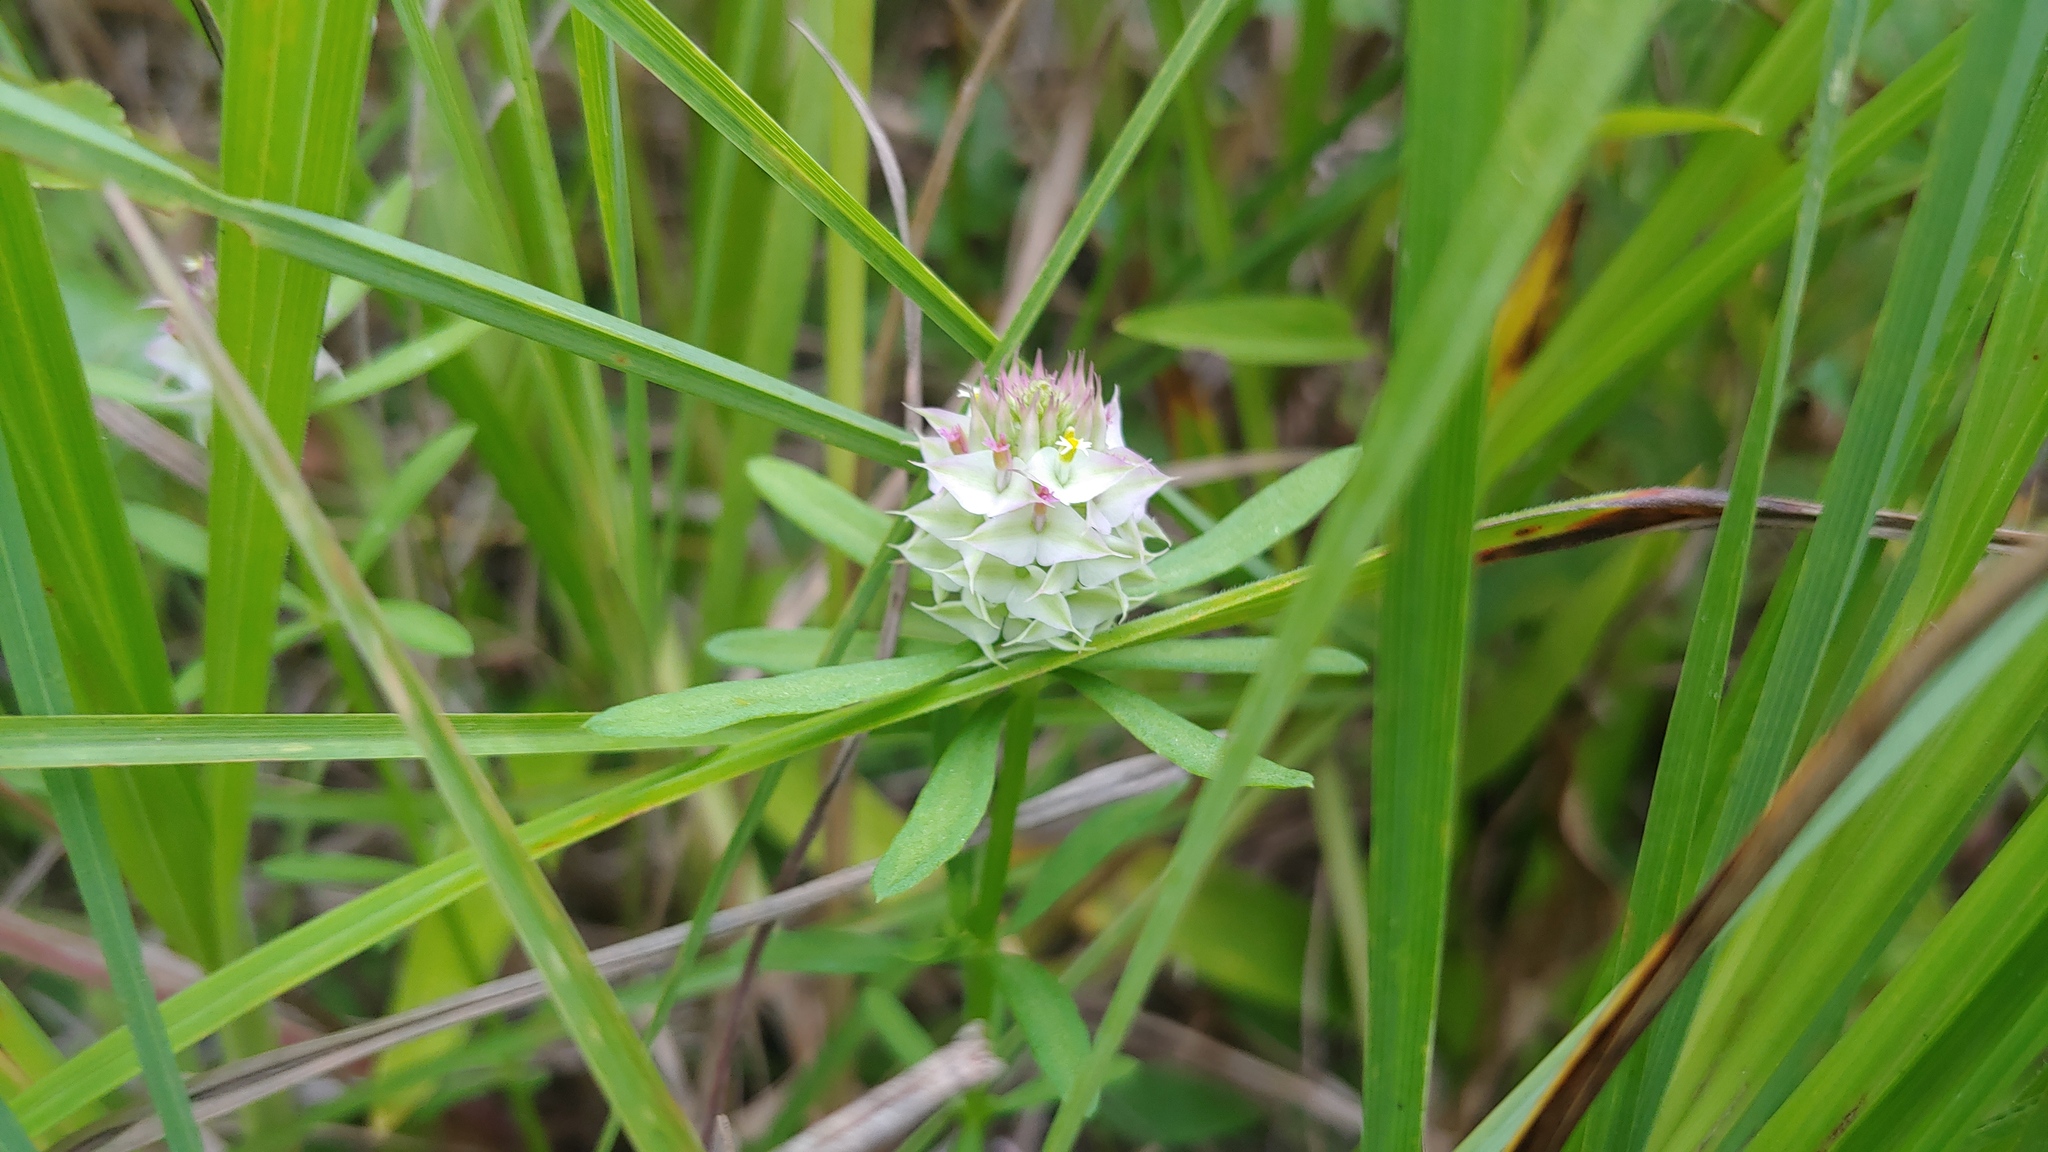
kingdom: Plantae
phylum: Tracheophyta
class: Magnoliopsida
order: Fabales
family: Polygalaceae
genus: Polygala
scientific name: Polygala cruciata
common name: Drumheads
